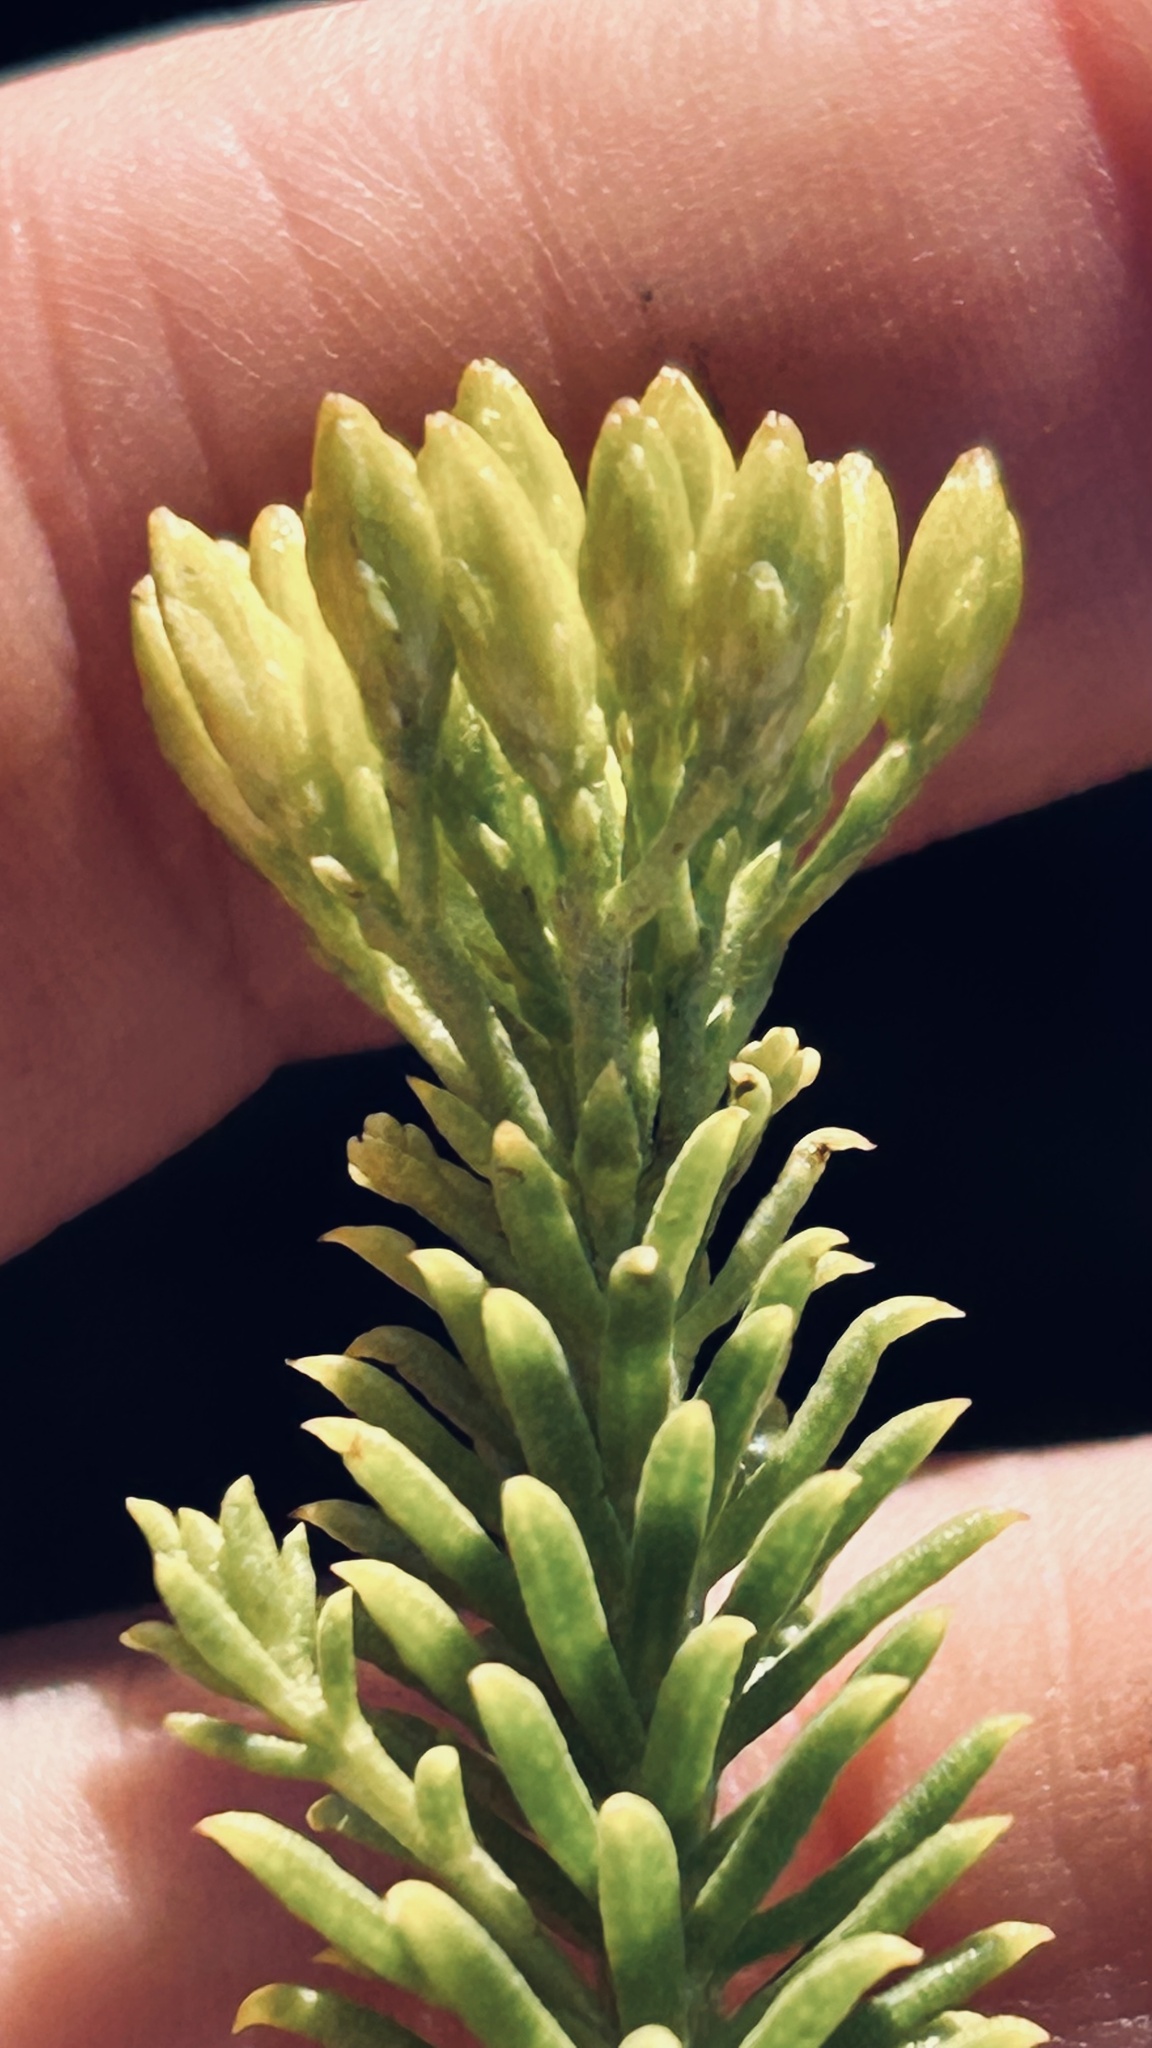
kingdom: Plantae
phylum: Tracheophyta
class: Magnoliopsida
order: Asterales
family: Asteraceae
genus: Pteronia
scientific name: Pteronia uncinata
